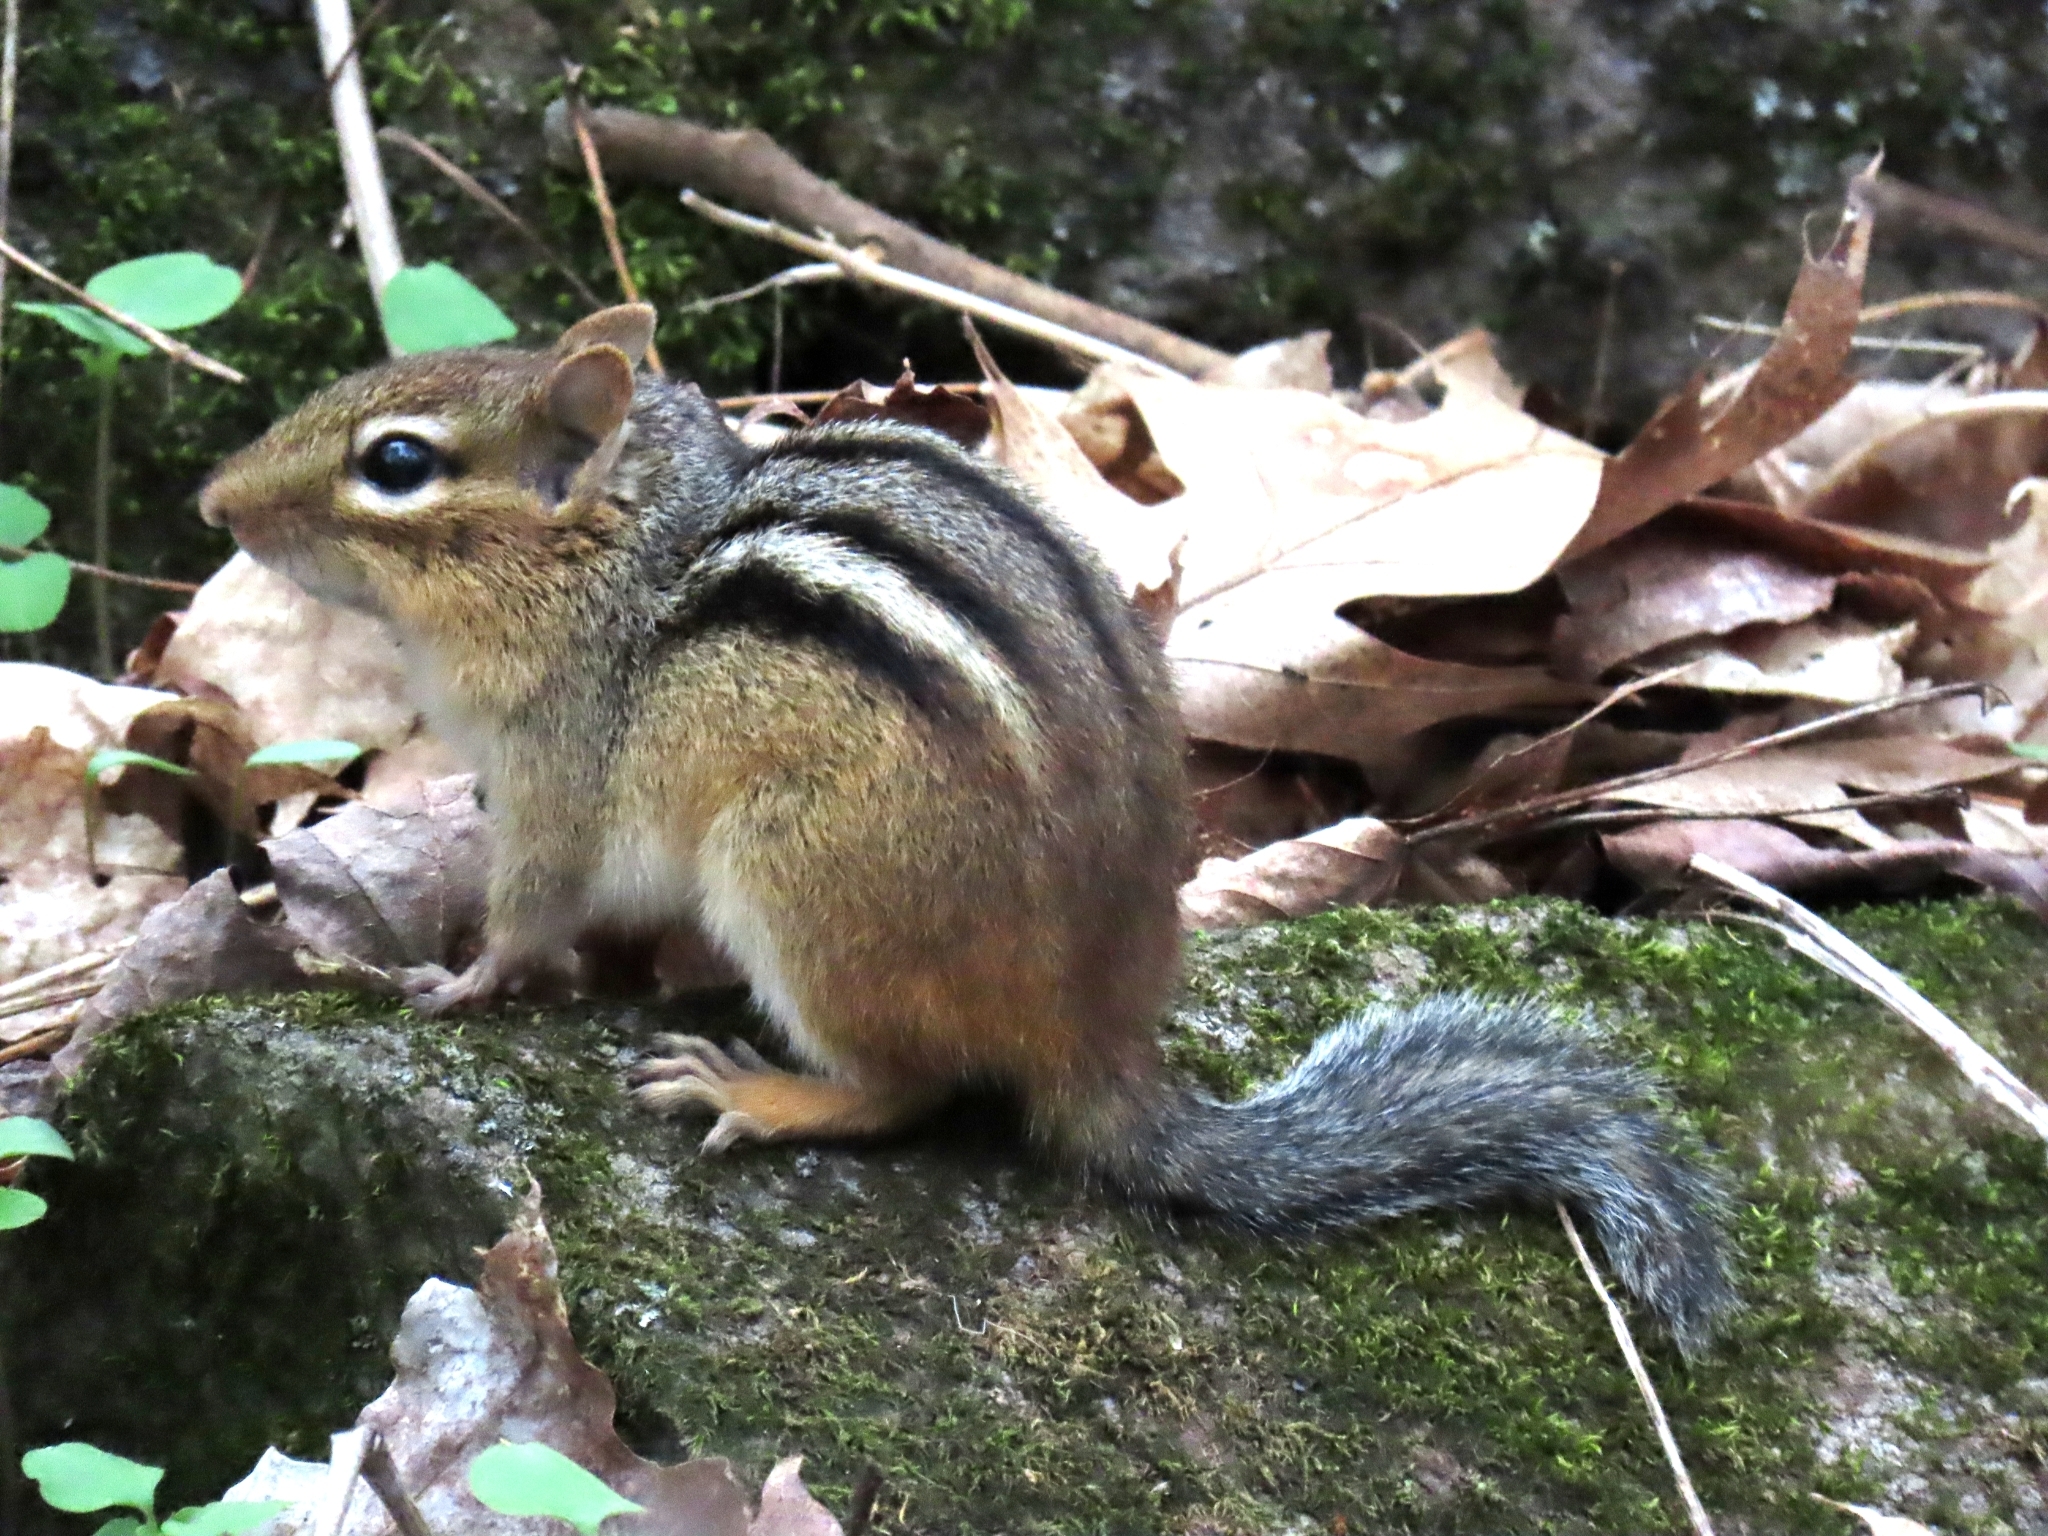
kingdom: Animalia
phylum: Chordata
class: Mammalia
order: Rodentia
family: Sciuridae
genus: Tamias
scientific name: Tamias striatus
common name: Eastern chipmunk
